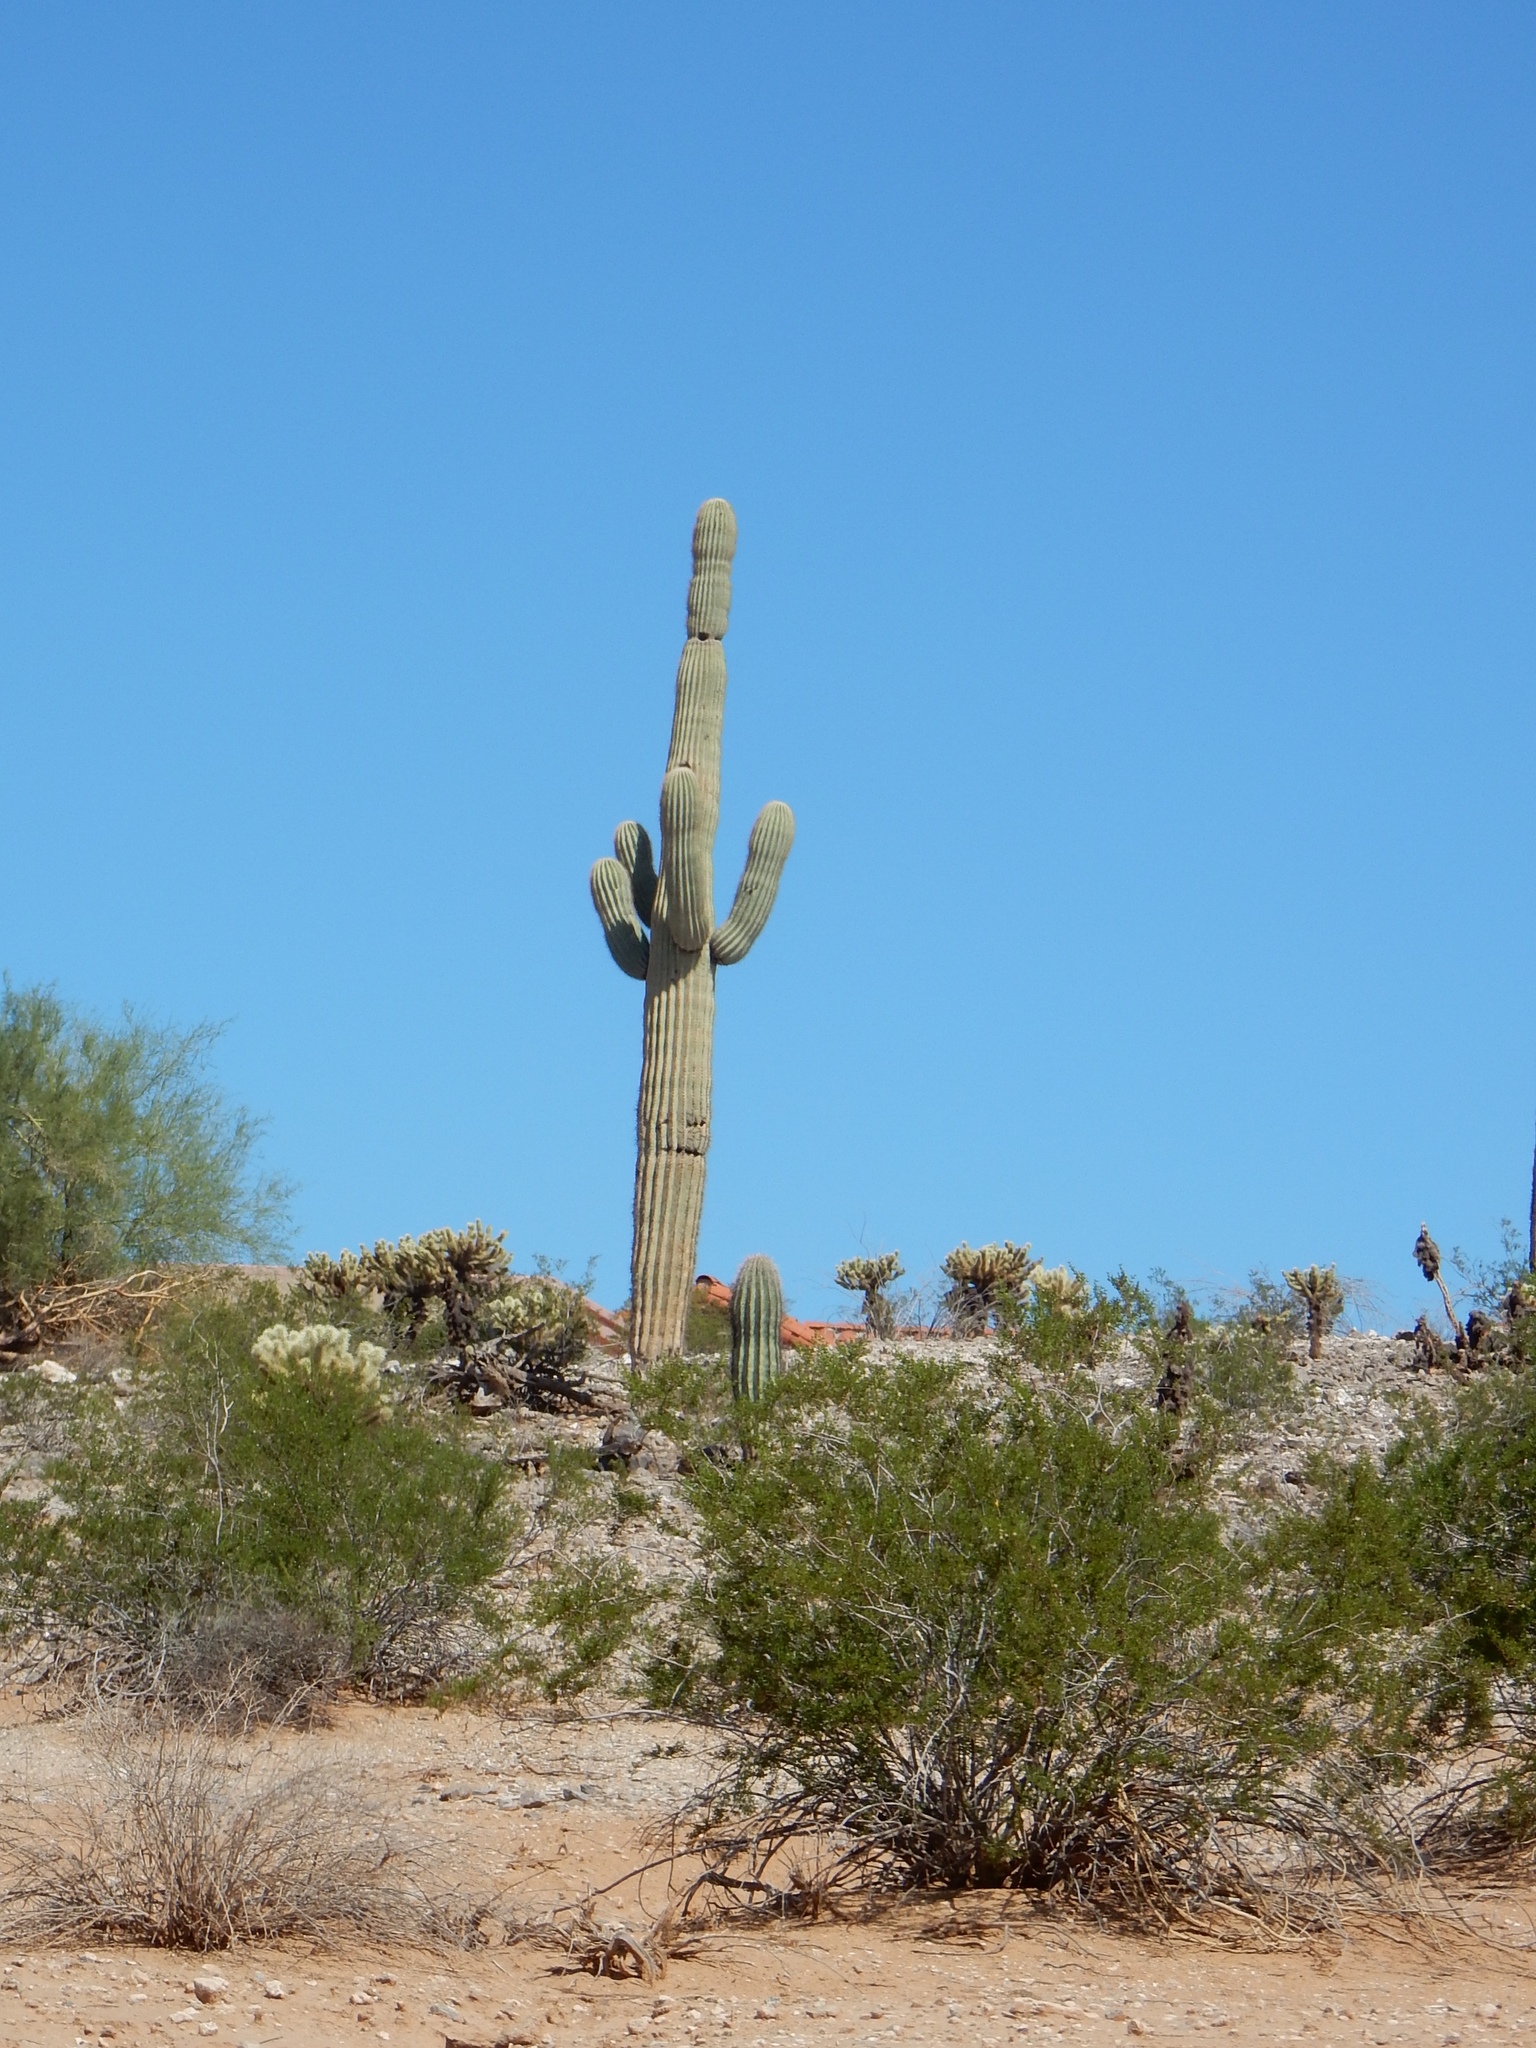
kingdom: Plantae
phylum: Tracheophyta
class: Magnoliopsida
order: Caryophyllales
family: Cactaceae
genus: Carnegiea
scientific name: Carnegiea gigantea
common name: Saguaro
